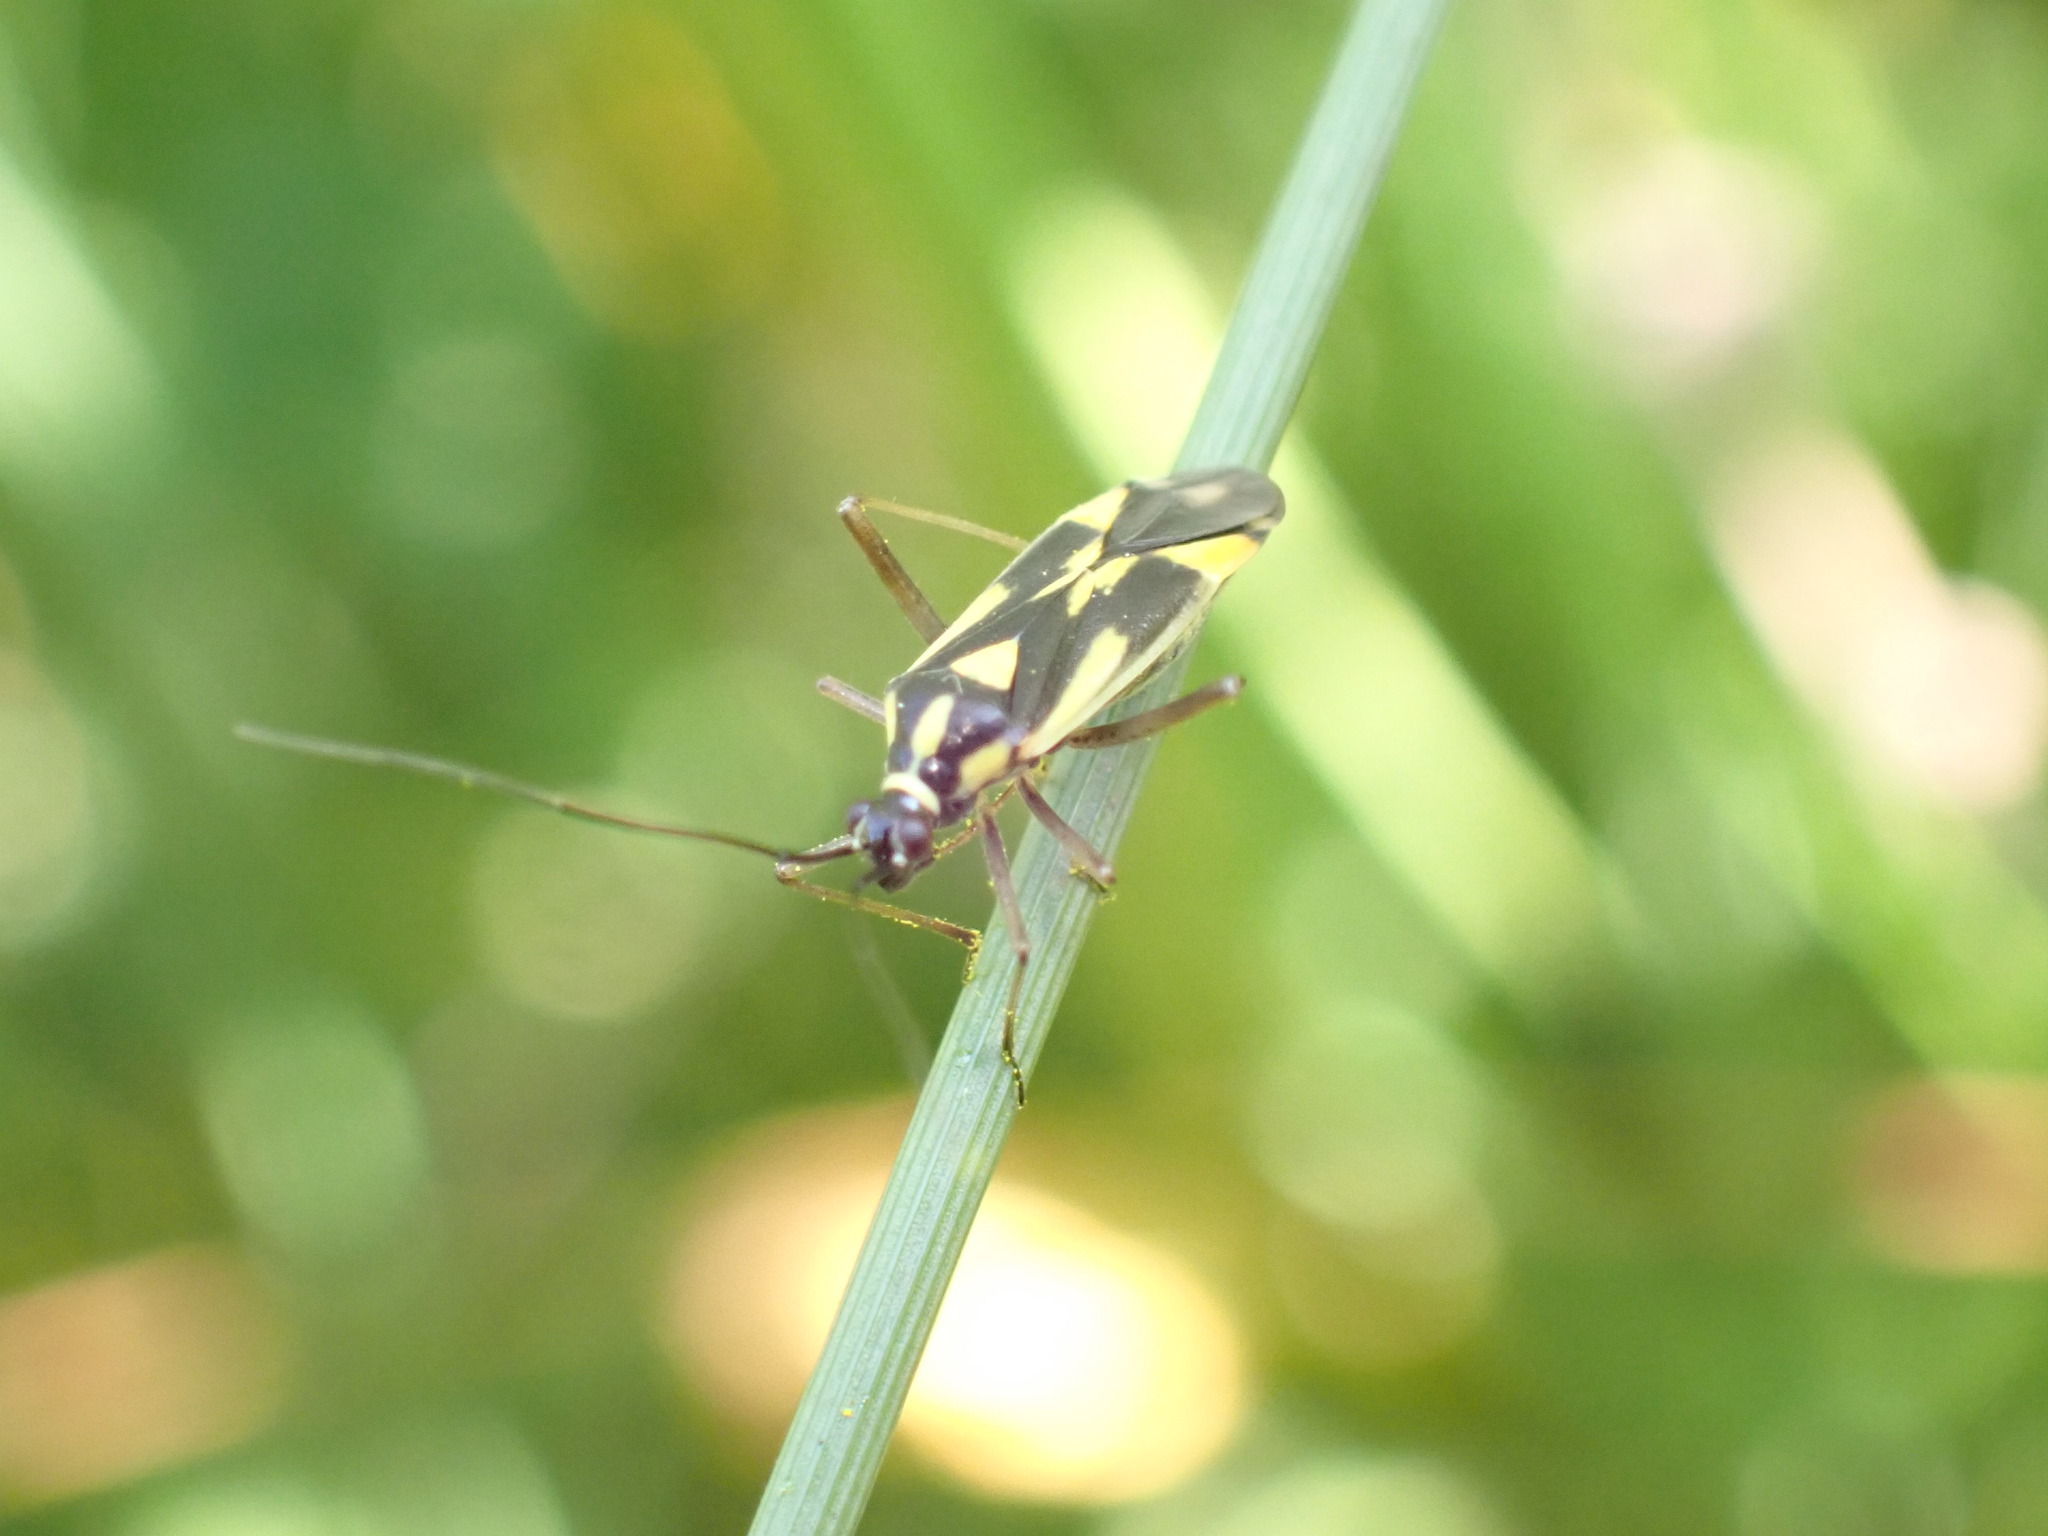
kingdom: Animalia
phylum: Arthropoda
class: Insecta
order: Hemiptera
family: Miridae
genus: Grypocoris
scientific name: Grypocoris stysi
